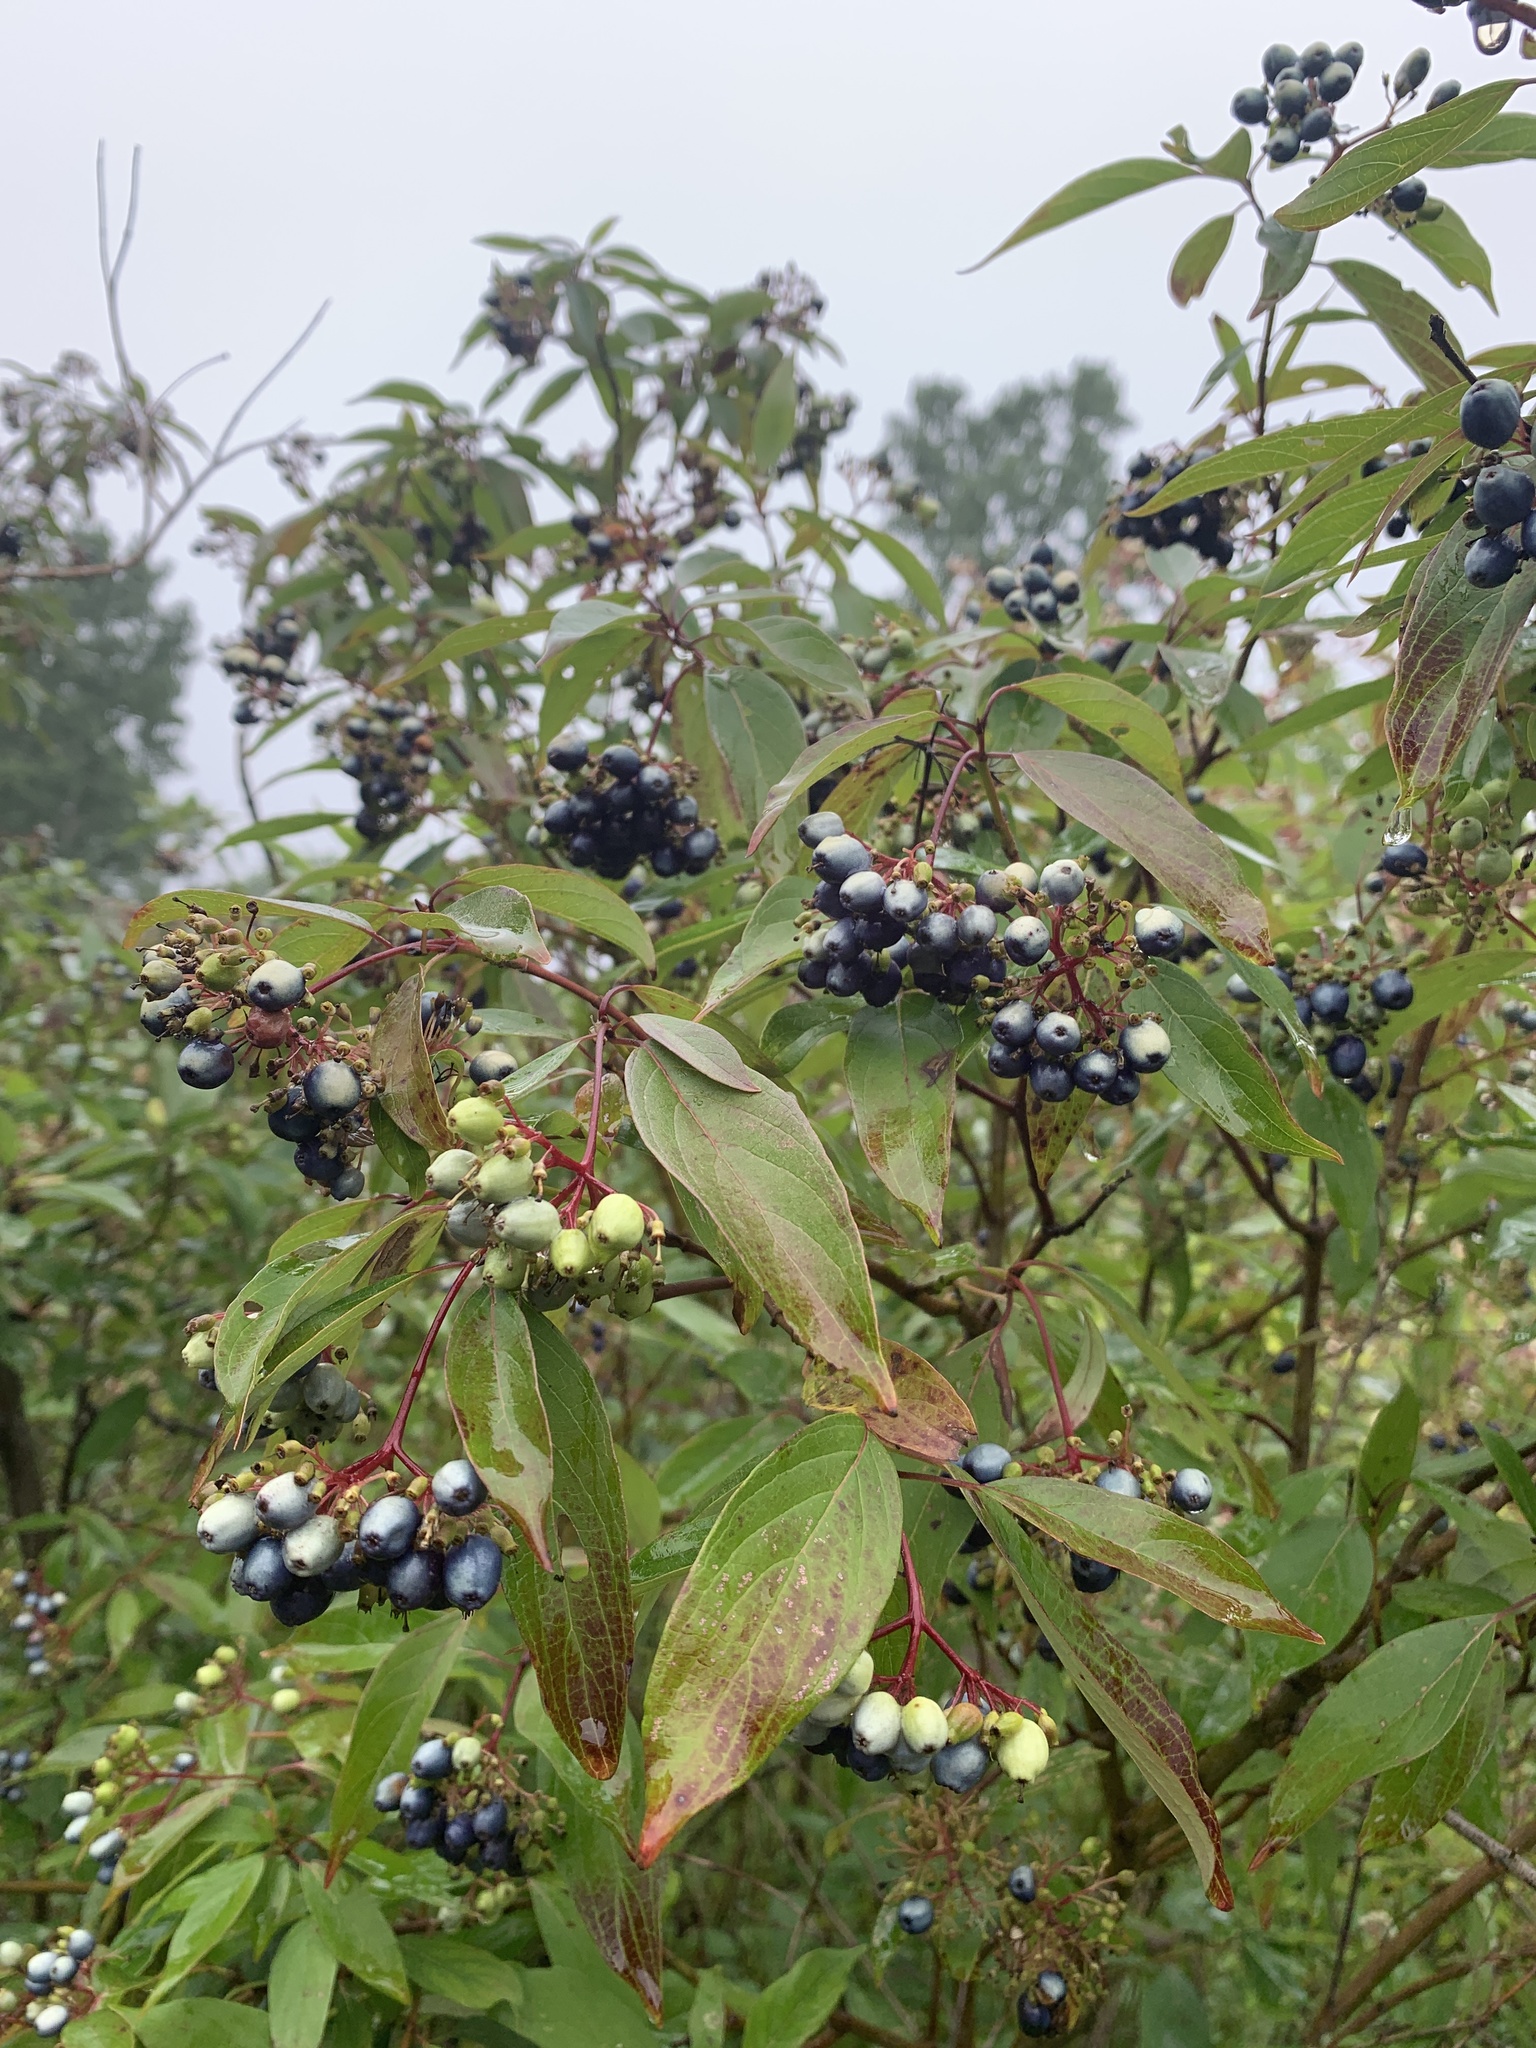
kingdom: Plantae
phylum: Tracheophyta
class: Magnoliopsida
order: Cornales
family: Cornaceae
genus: Cornus
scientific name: Cornus amomum
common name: Silky dogwood
